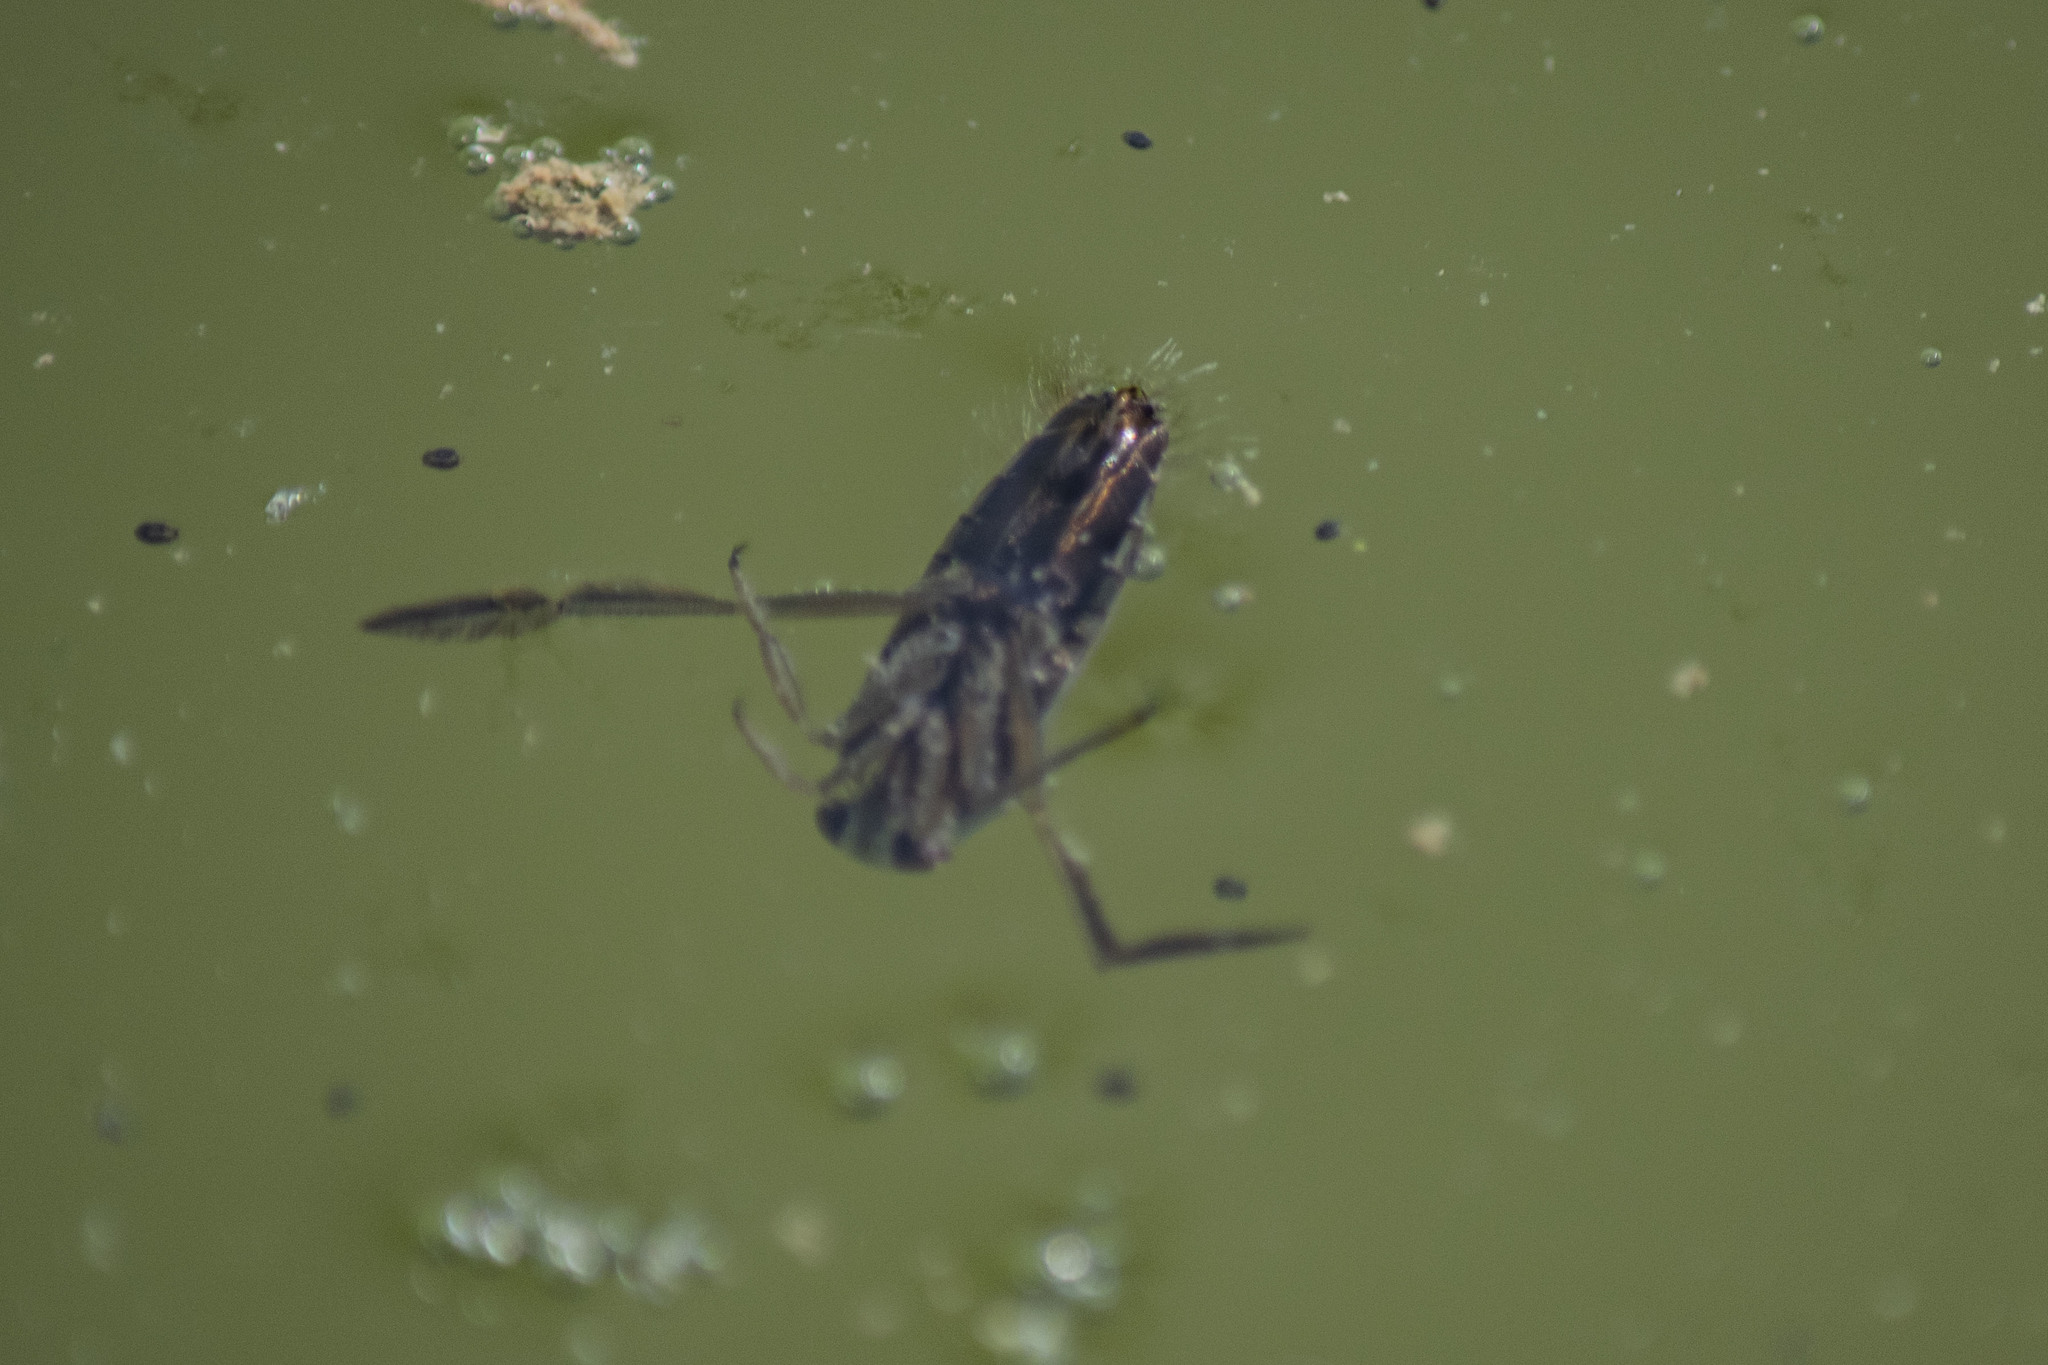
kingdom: Animalia
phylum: Arthropoda
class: Insecta
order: Hemiptera
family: Notonectidae
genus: Notonecta
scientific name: Notonecta
